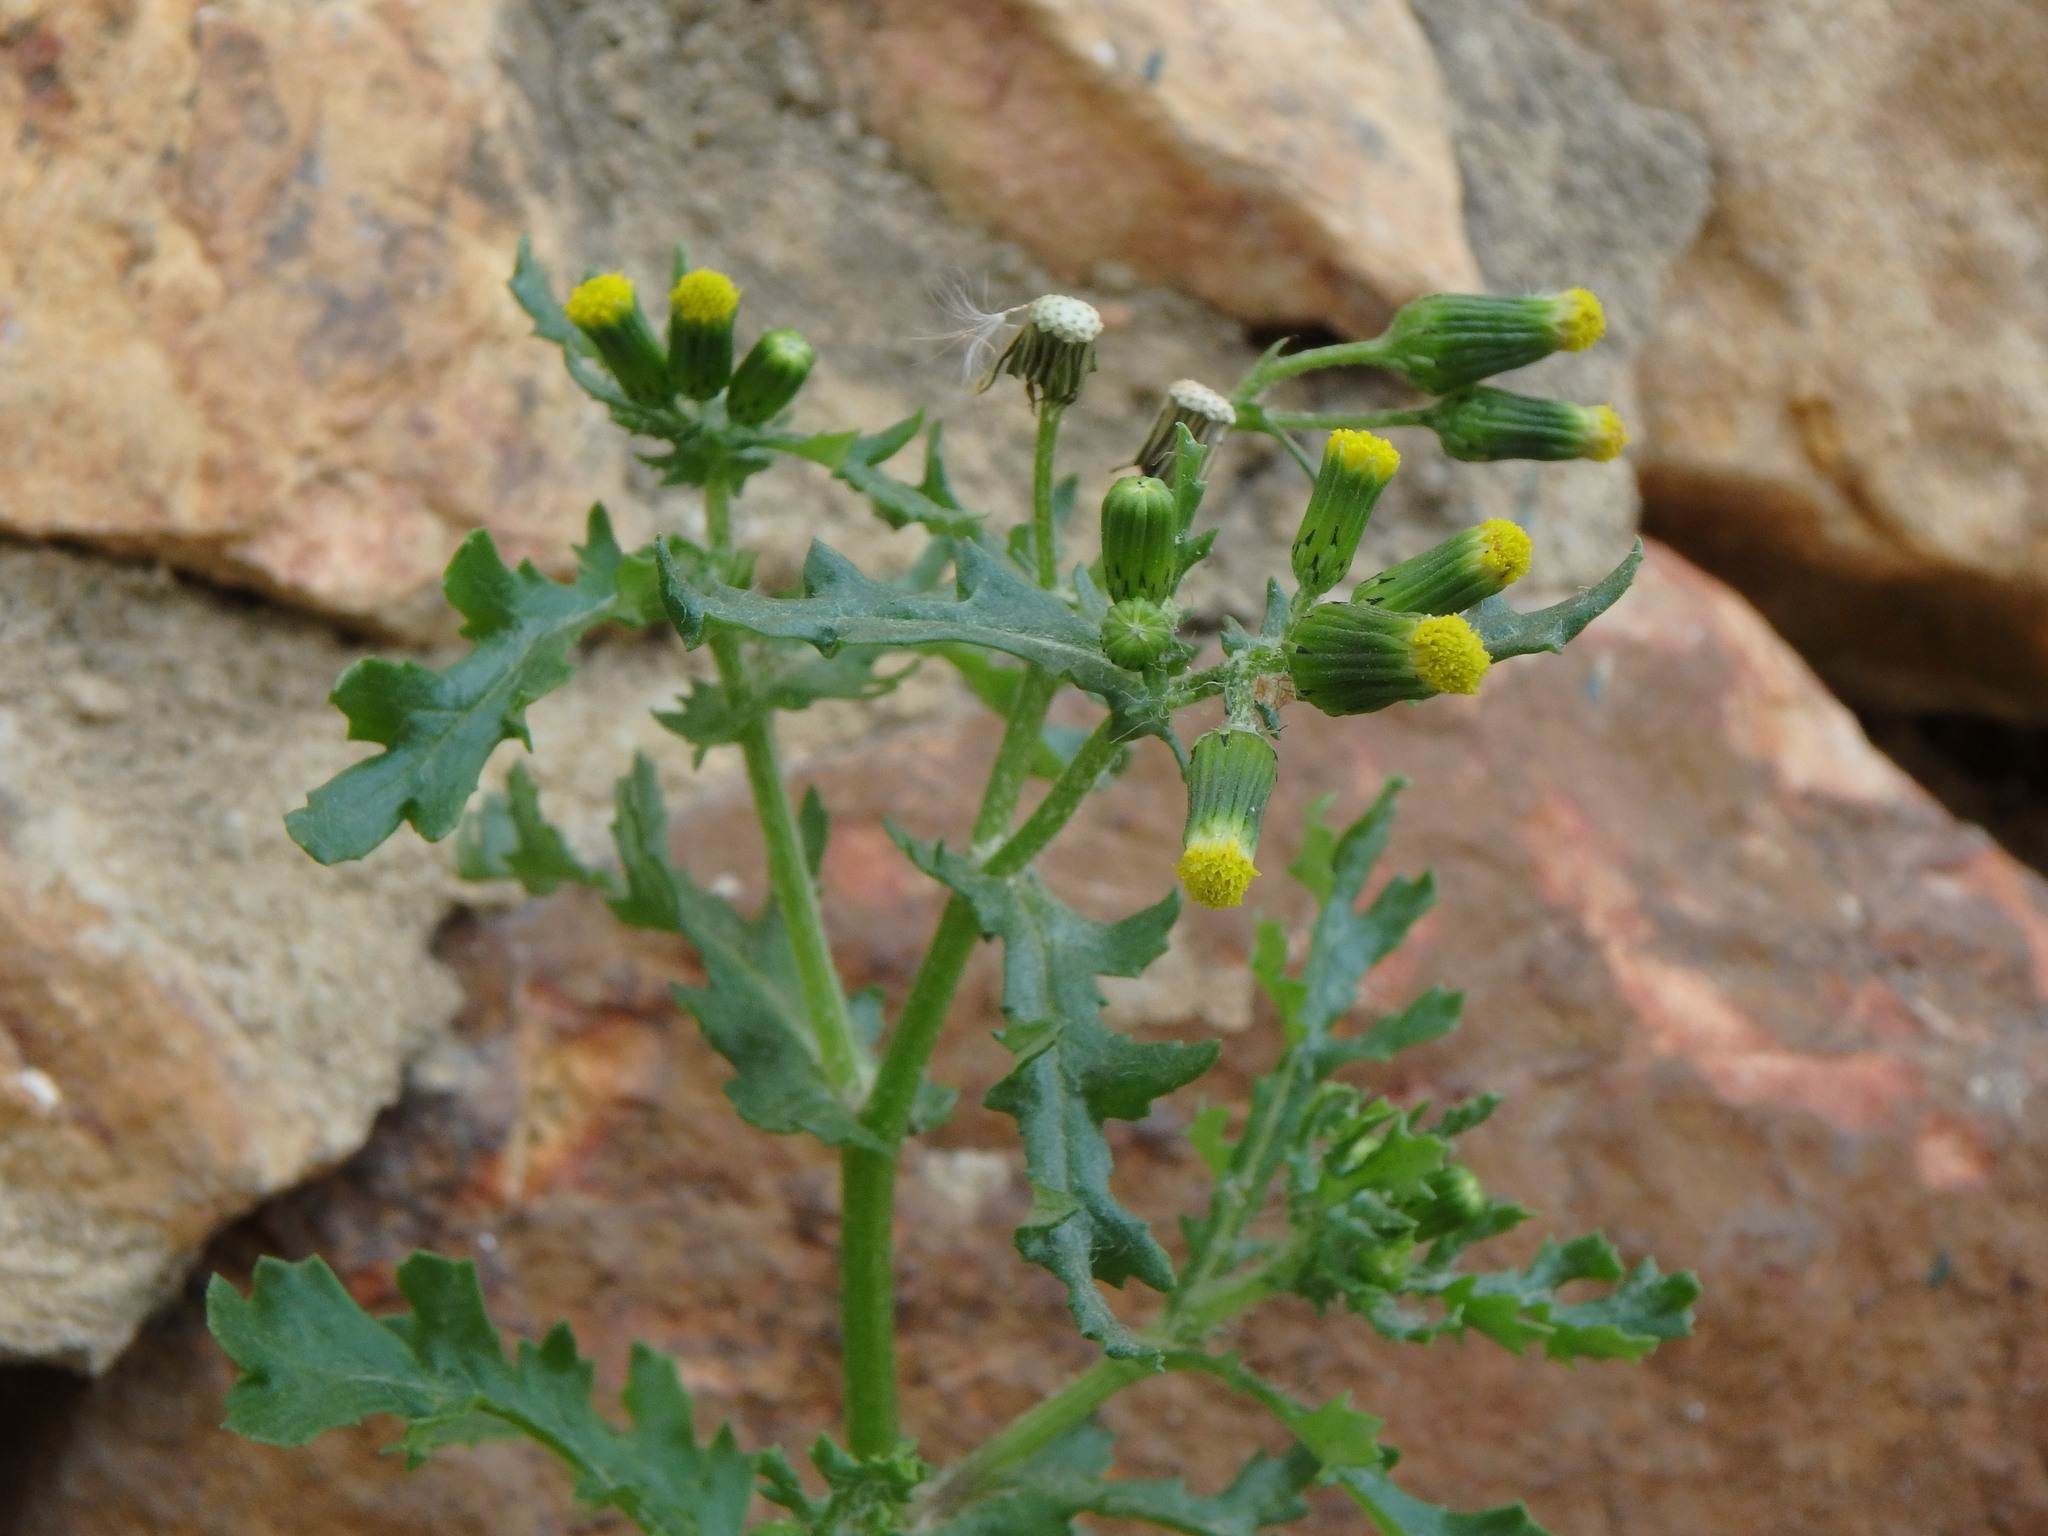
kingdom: Plantae
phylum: Tracheophyta
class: Magnoliopsida
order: Asterales
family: Asteraceae
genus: Senecio
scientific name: Senecio vulgaris
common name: Old-man-in-the-spring
